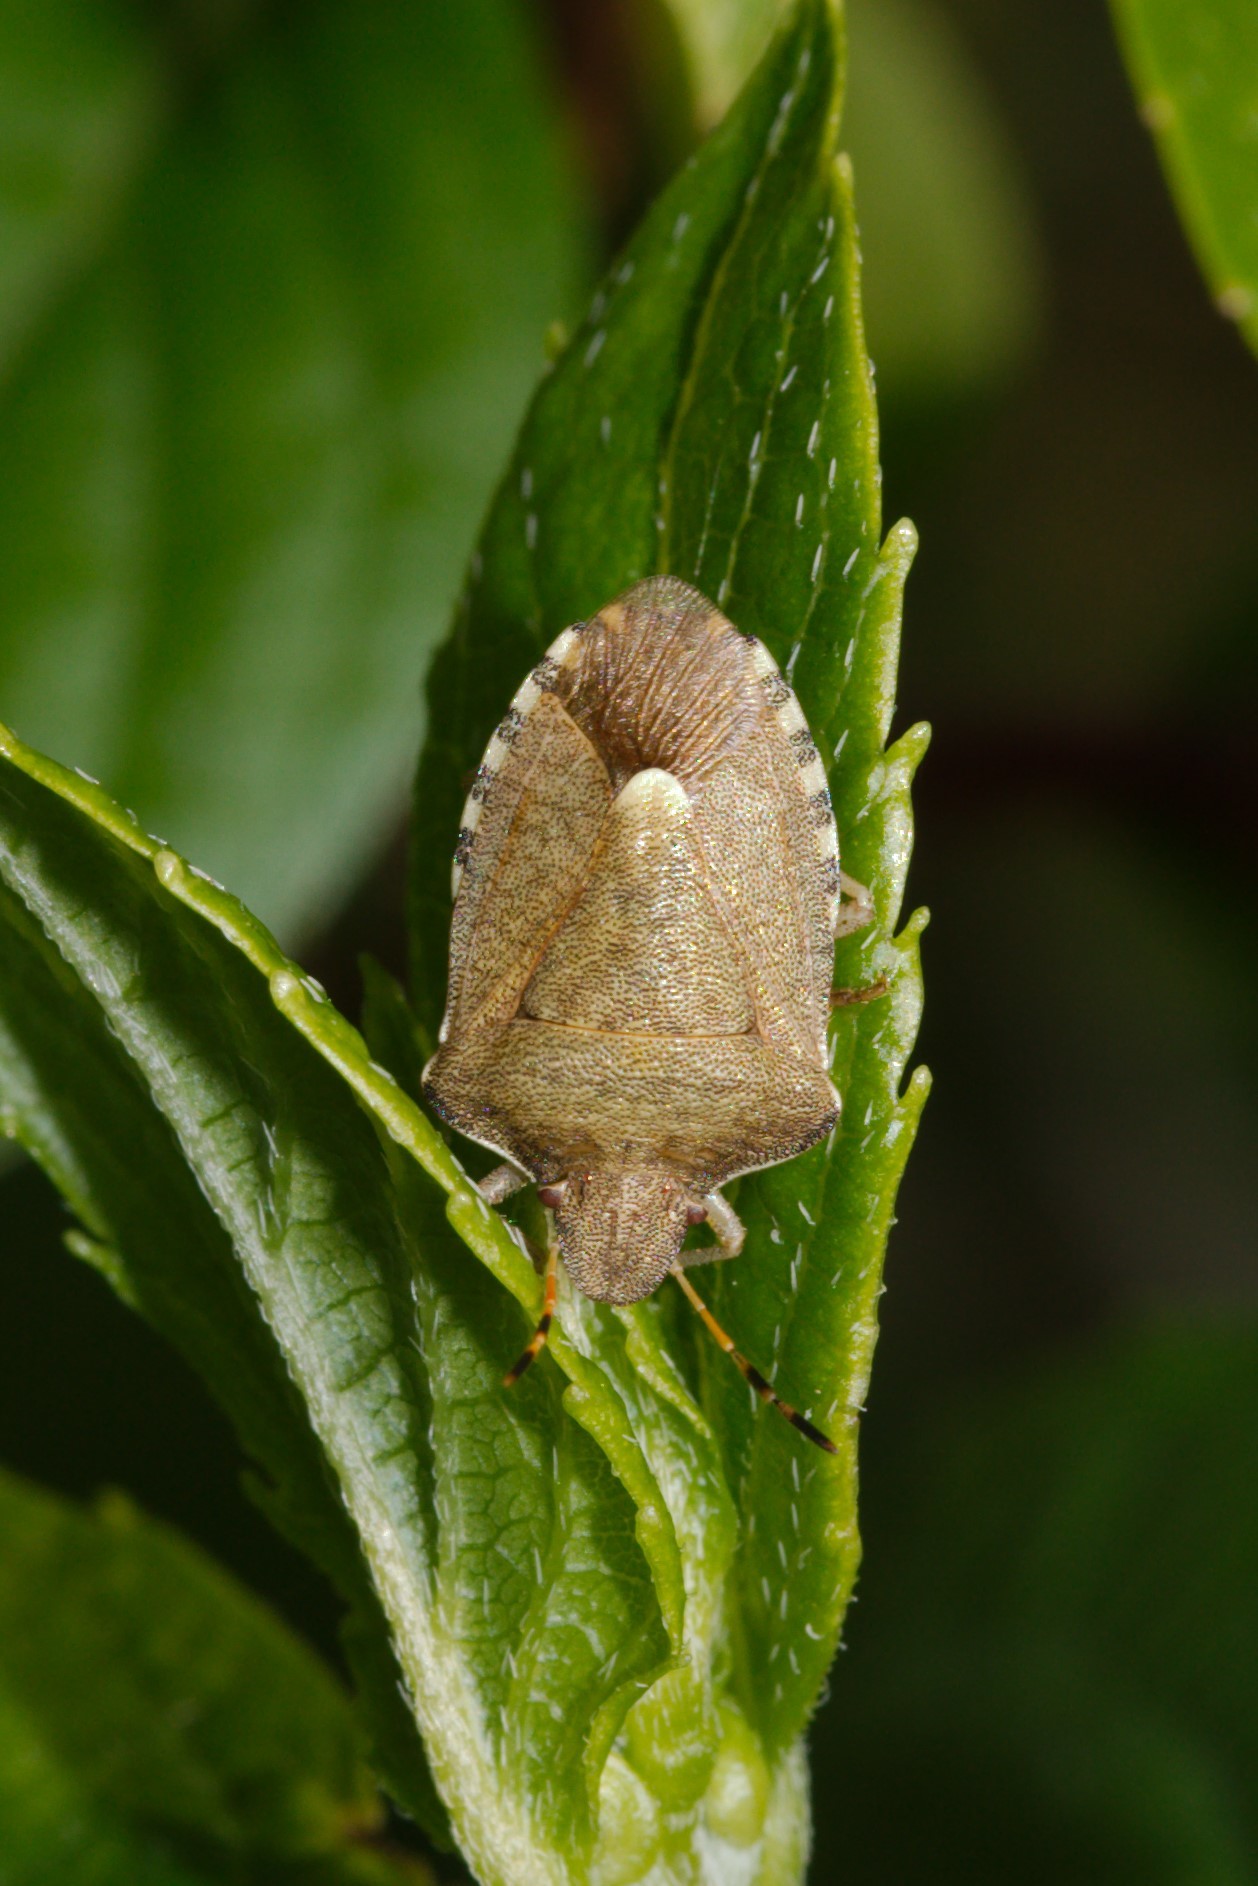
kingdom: Animalia
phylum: Arthropoda
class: Insecta
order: Hemiptera
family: Pentatomidae
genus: Holcostethus
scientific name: Holcostethus strictus
